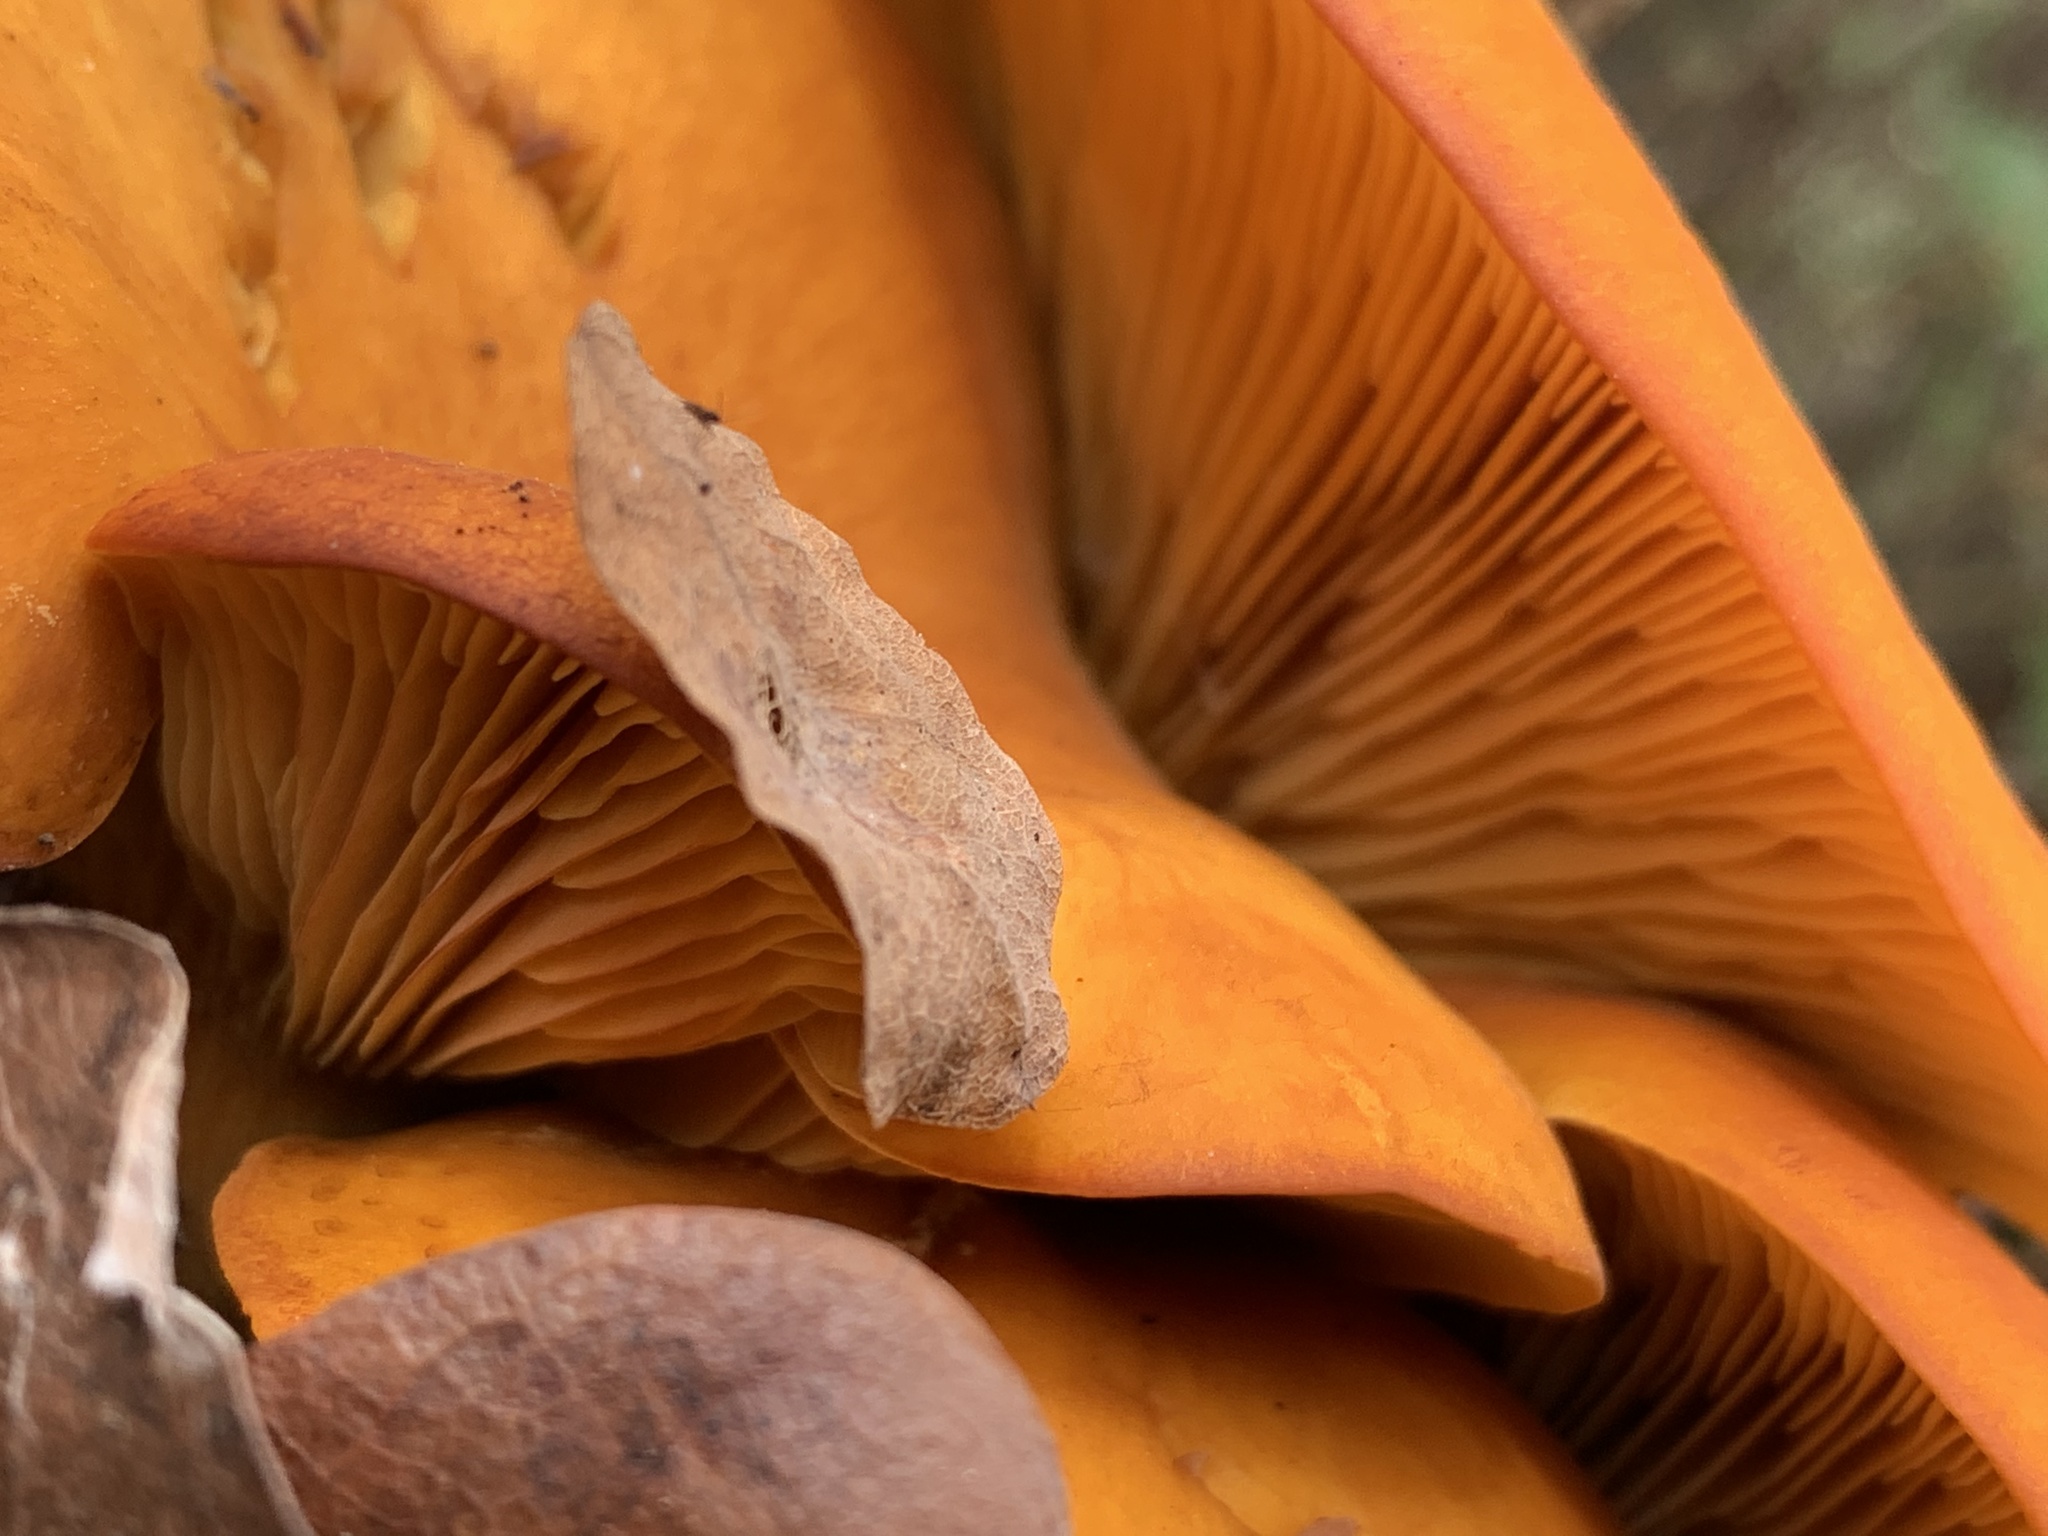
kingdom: Fungi
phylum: Basidiomycota
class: Agaricomycetes
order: Agaricales
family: Omphalotaceae
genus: Omphalotus
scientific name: Omphalotus subilludens
